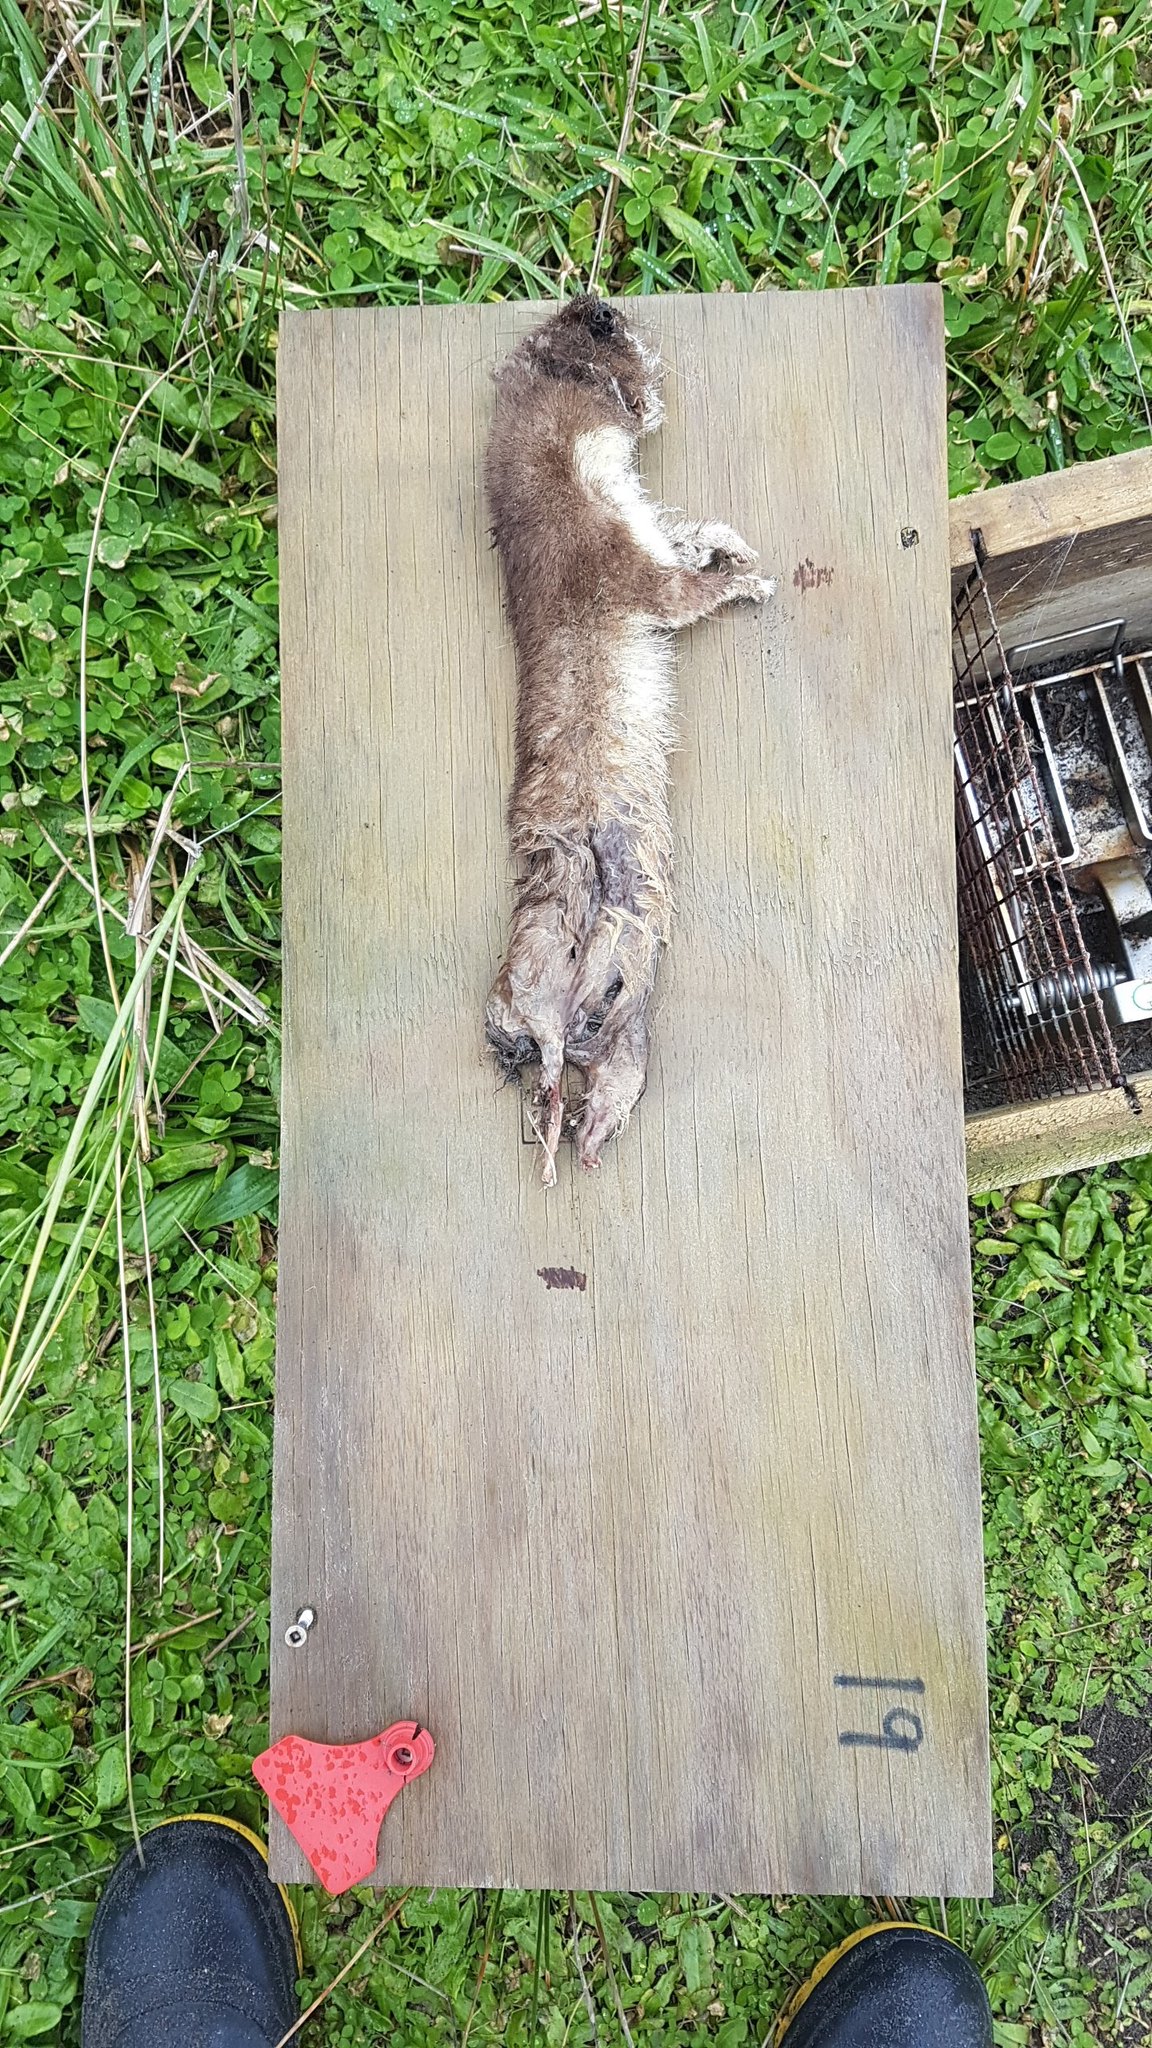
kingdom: Animalia
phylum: Chordata
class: Mammalia
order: Carnivora
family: Mustelidae
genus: Mustela
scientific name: Mustela erminea
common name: Stoat
